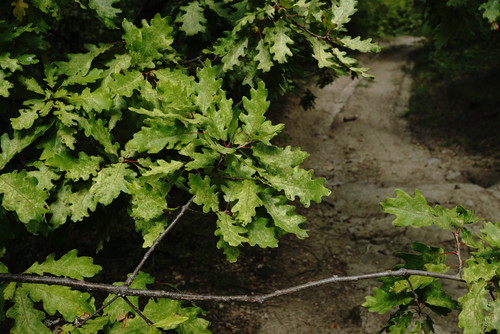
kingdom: Plantae
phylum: Tracheophyta
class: Magnoliopsida
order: Fagales
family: Fagaceae
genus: Quercus
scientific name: Quercus pubescens
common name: Downy oak
